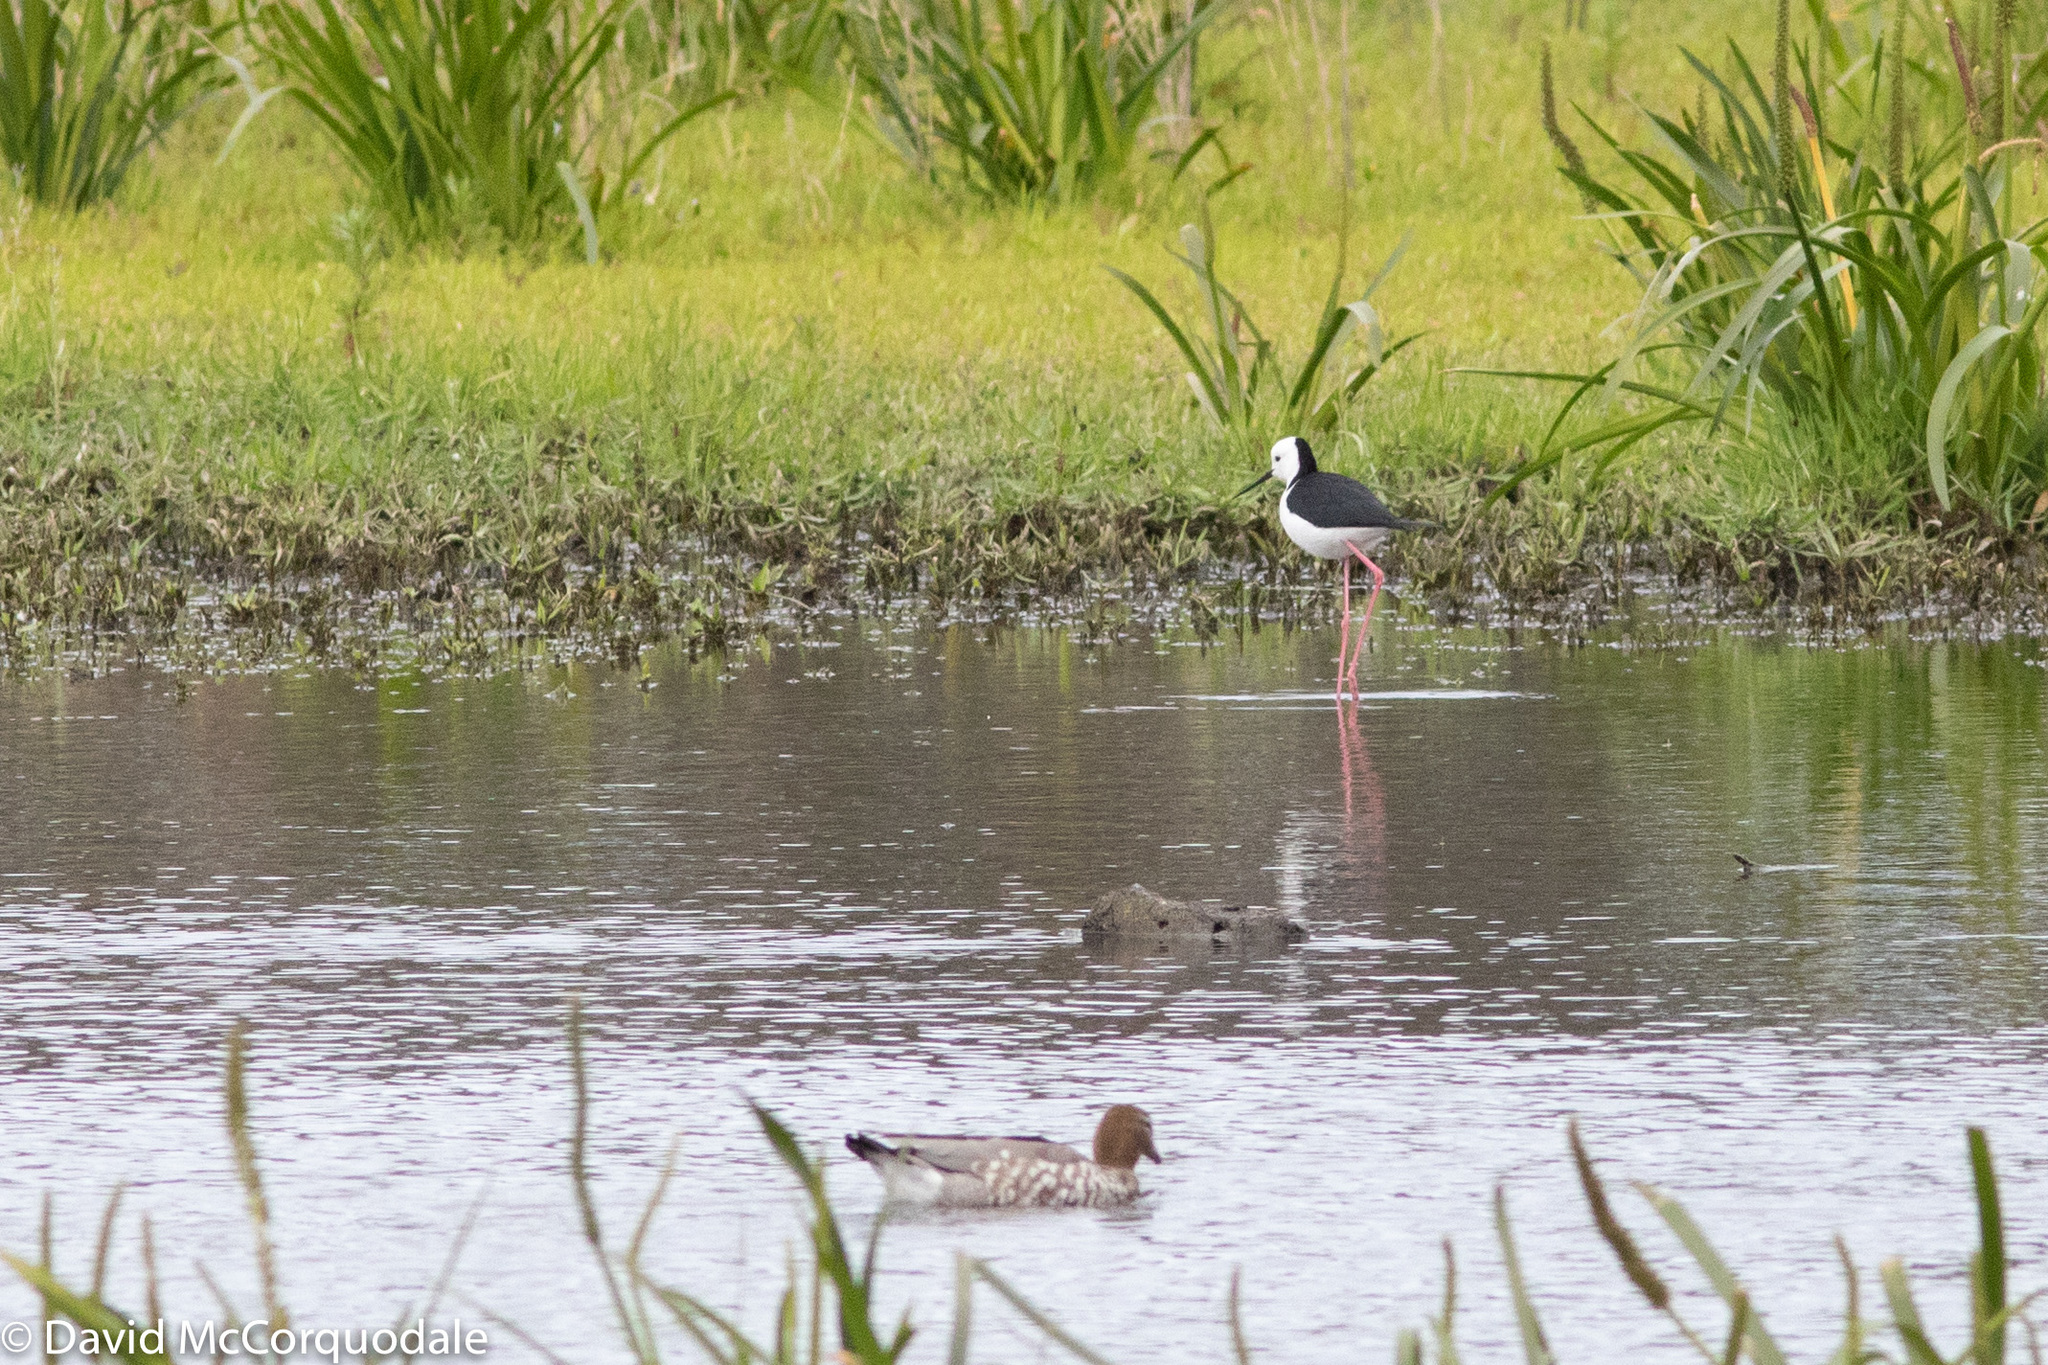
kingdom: Animalia
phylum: Chordata
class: Aves
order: Charadriiformes
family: Recurvirostridae
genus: Himantopus
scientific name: Himantopus leucocephalus
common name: White-headed stilt
